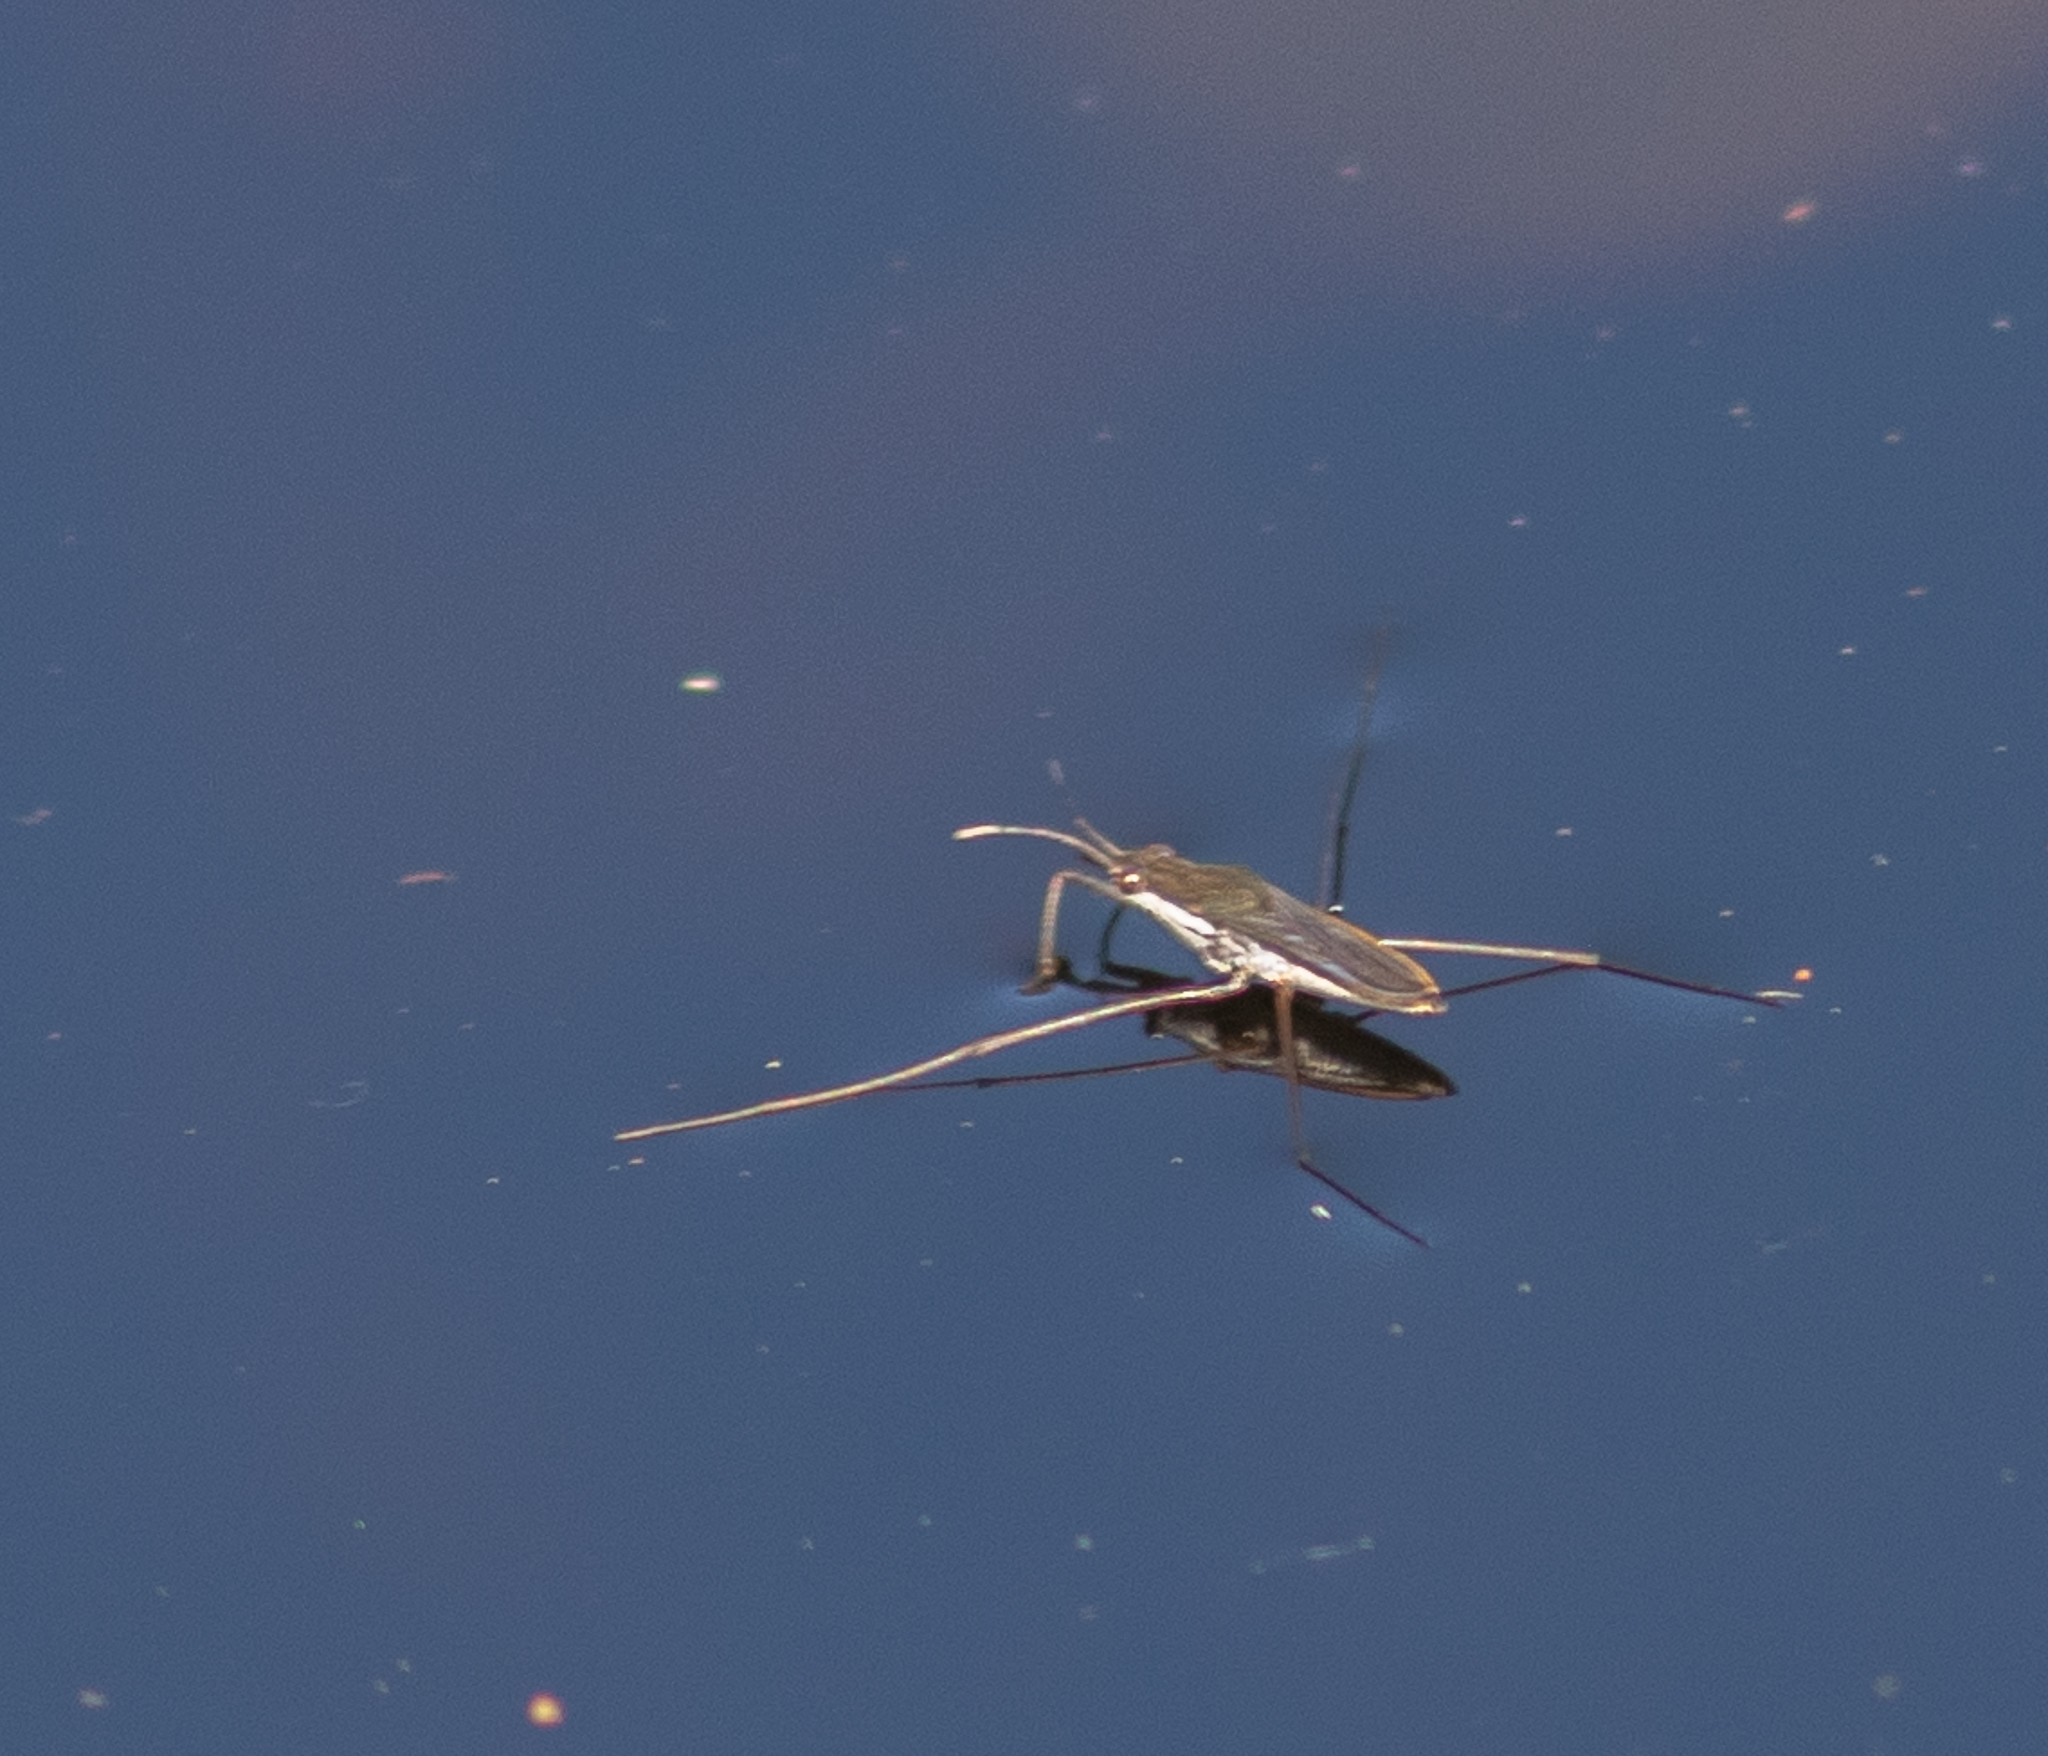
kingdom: Animalia
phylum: Arthropoda
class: Insecta
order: Hemiptera
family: Gerridae
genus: Gerris
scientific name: Gerris
